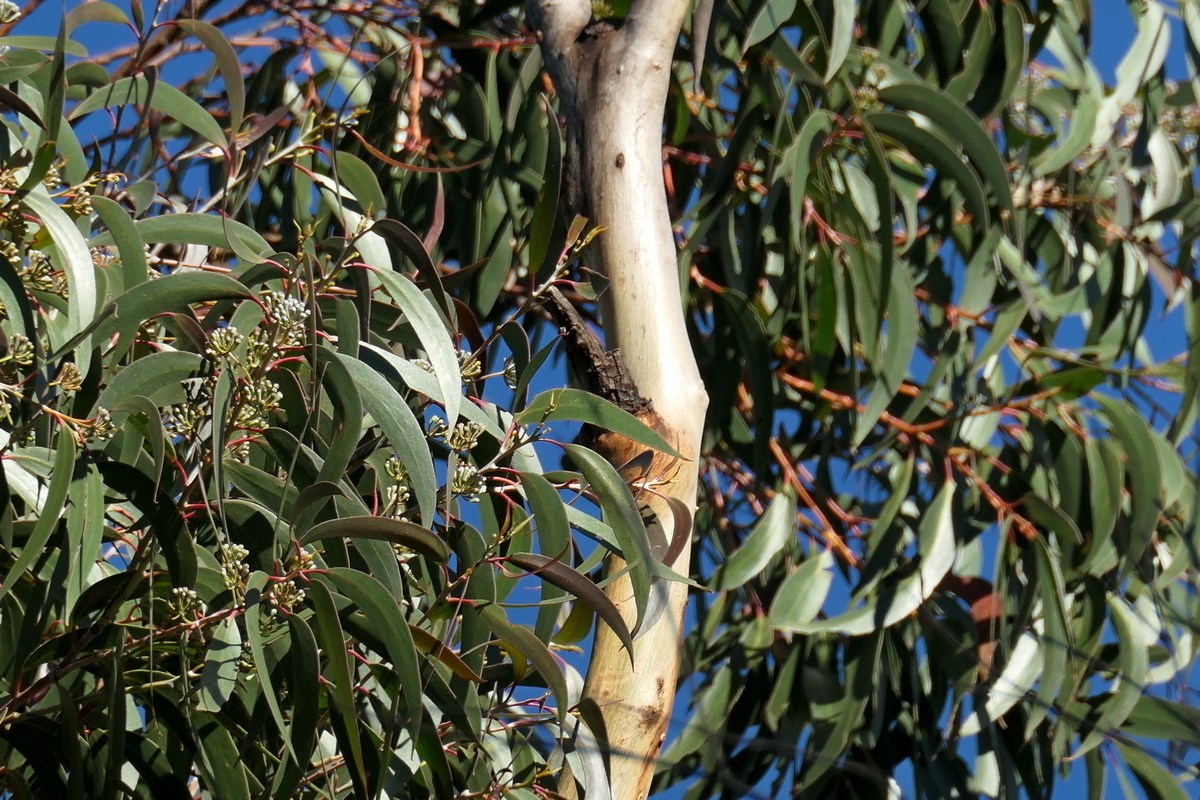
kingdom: Plantae
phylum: Tracheophyta
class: Magnoliopsida
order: Myrtales
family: Myrtaceae
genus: Eucalyptus
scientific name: Eucalyptus stenostoma
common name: Jillaga ash
